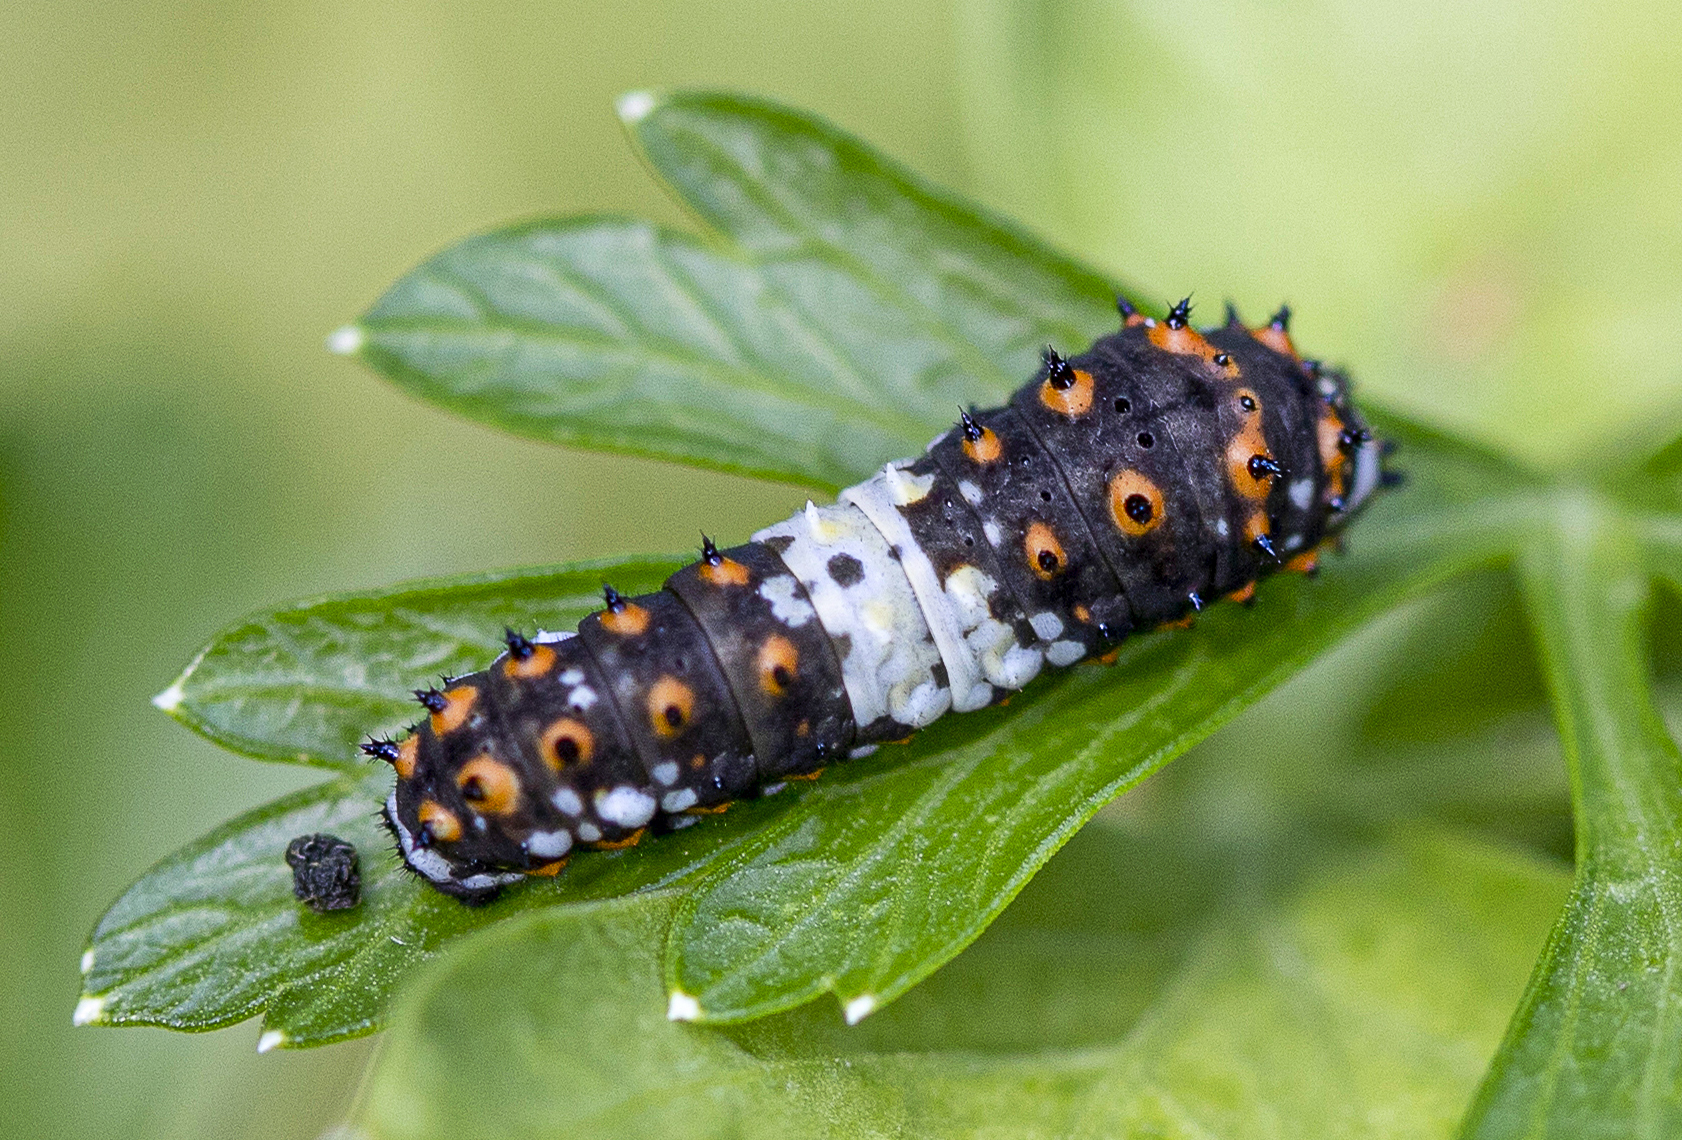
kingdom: Animalia
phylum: Arthropoda
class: Insecta
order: Lepidoptera
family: Papilionidae
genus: Papilio
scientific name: Papilio polyxenes
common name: Black swallowtail
